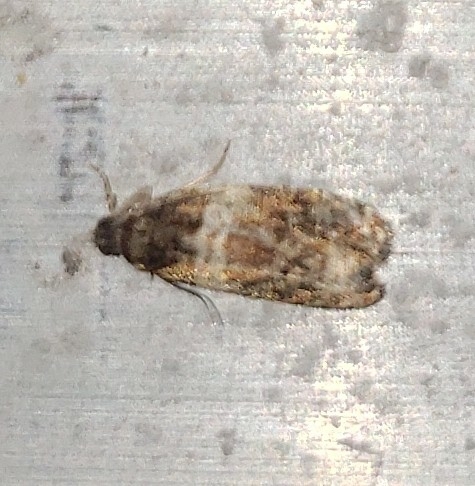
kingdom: Animalia
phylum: Arthropoda
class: Insecta
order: Lepidoptera
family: Tortricidae
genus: Olethreutes
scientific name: Olethreutes fasciatana
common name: Banded olethreutes moth
